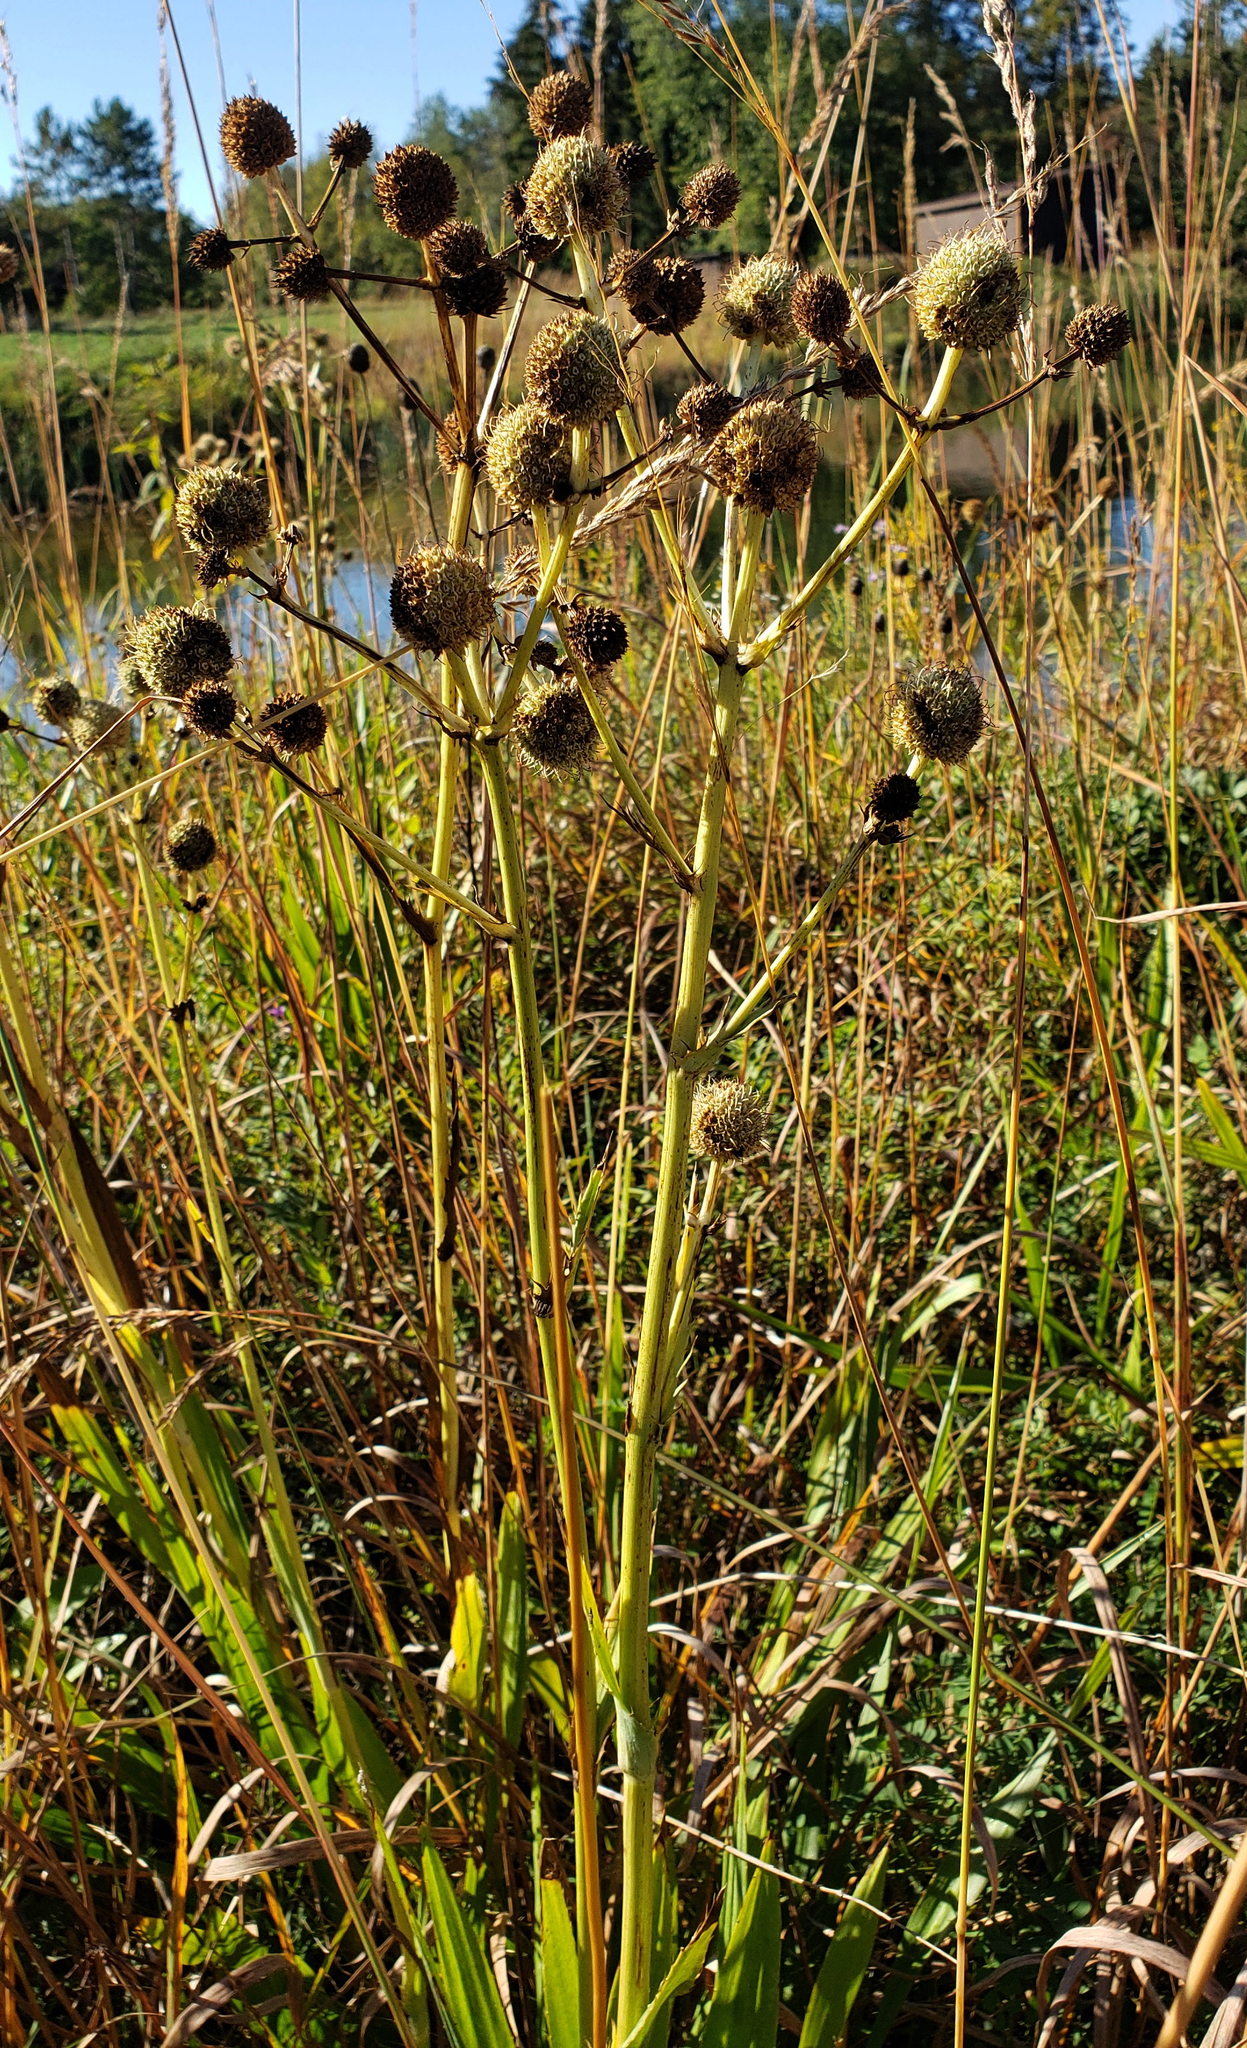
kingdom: Plantae
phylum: Tracheophyta
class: Magnoliopsida
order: Apiales
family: Apiaceae
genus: Eryngium
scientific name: Eryngium yuccifolium
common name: Button eryngo
